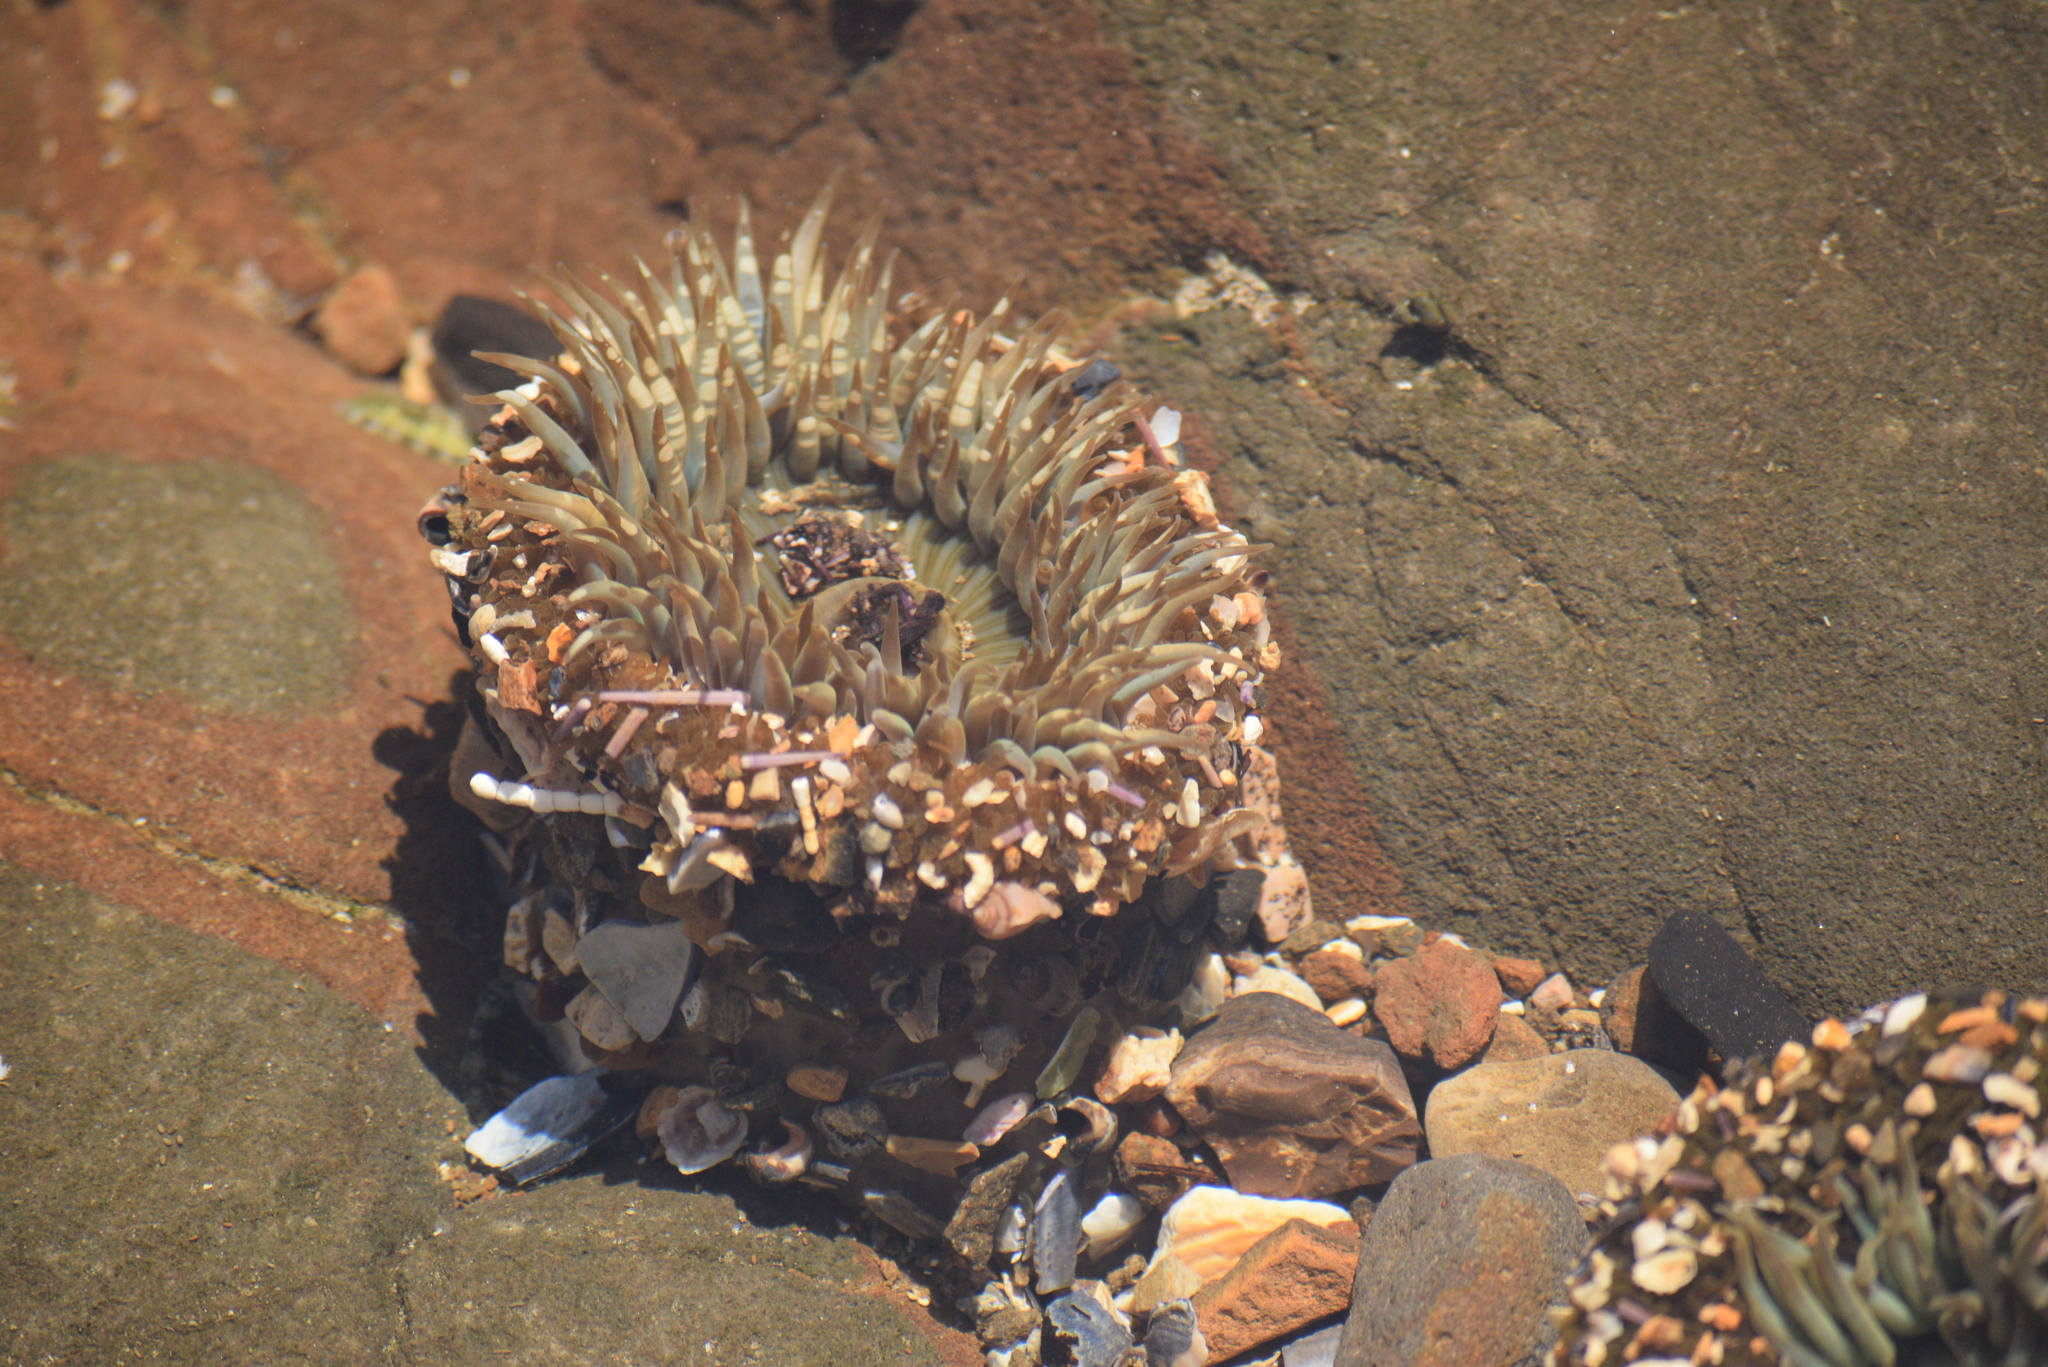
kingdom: Animalia
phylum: Cnidaria
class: Anthozoa
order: Actiniaria
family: Actiniidae
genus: Anthopleura
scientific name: Anthopleura sola
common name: Sun anemone
